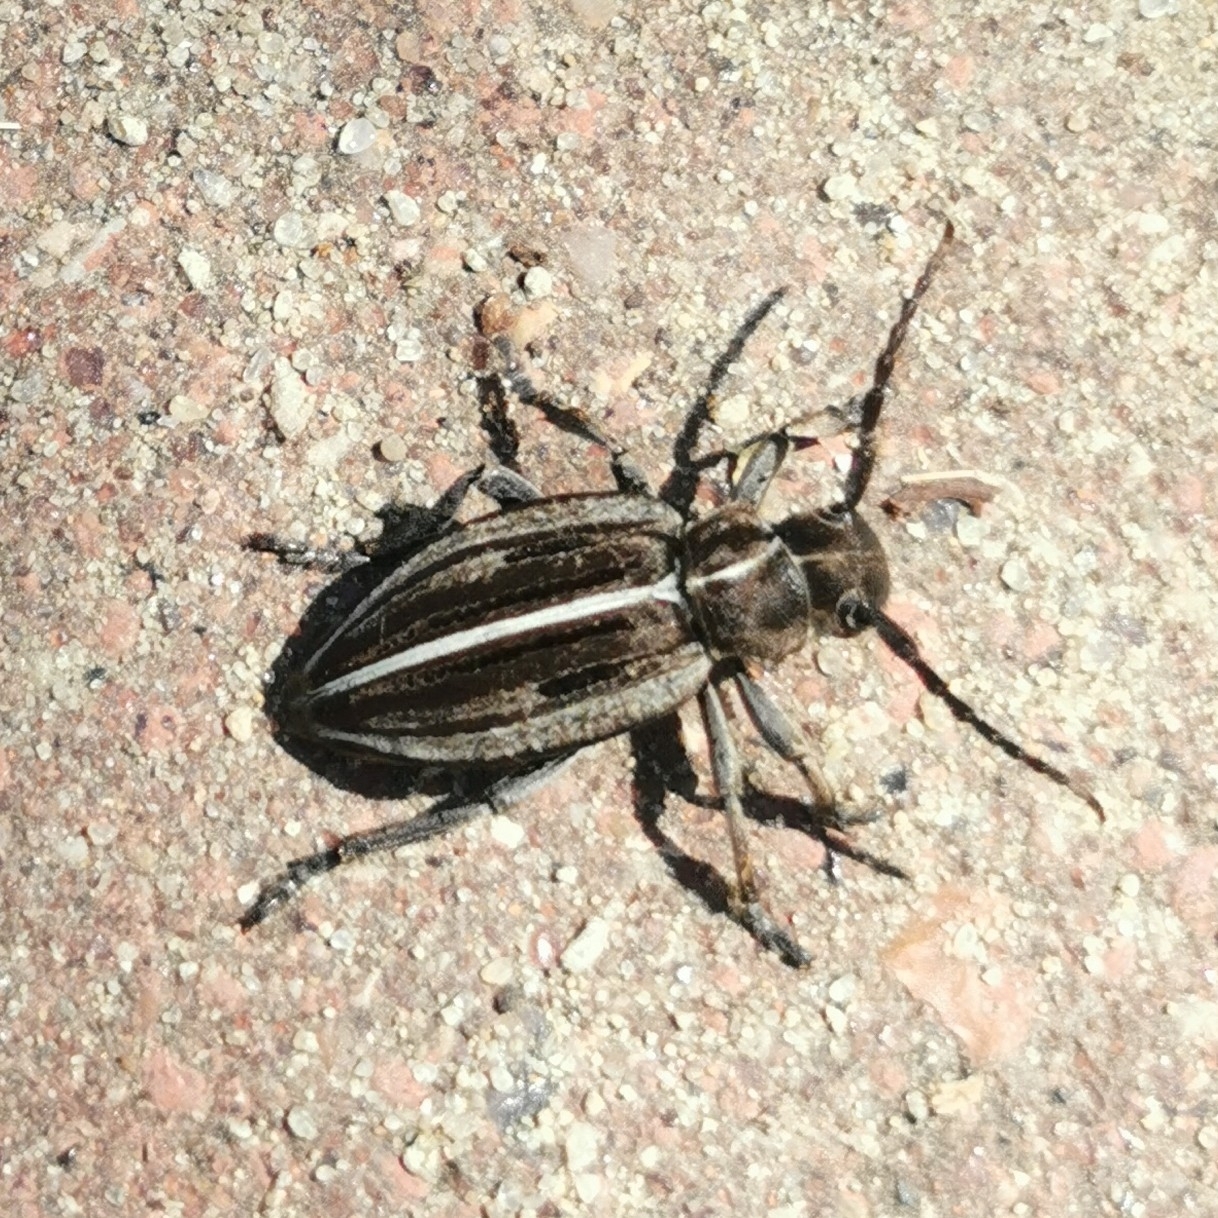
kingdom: Animalia
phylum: Arthropoda
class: Insecta
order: Coleoptera
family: Cerambycidae
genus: Dorcadion
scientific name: Dorcadion holosericeum
